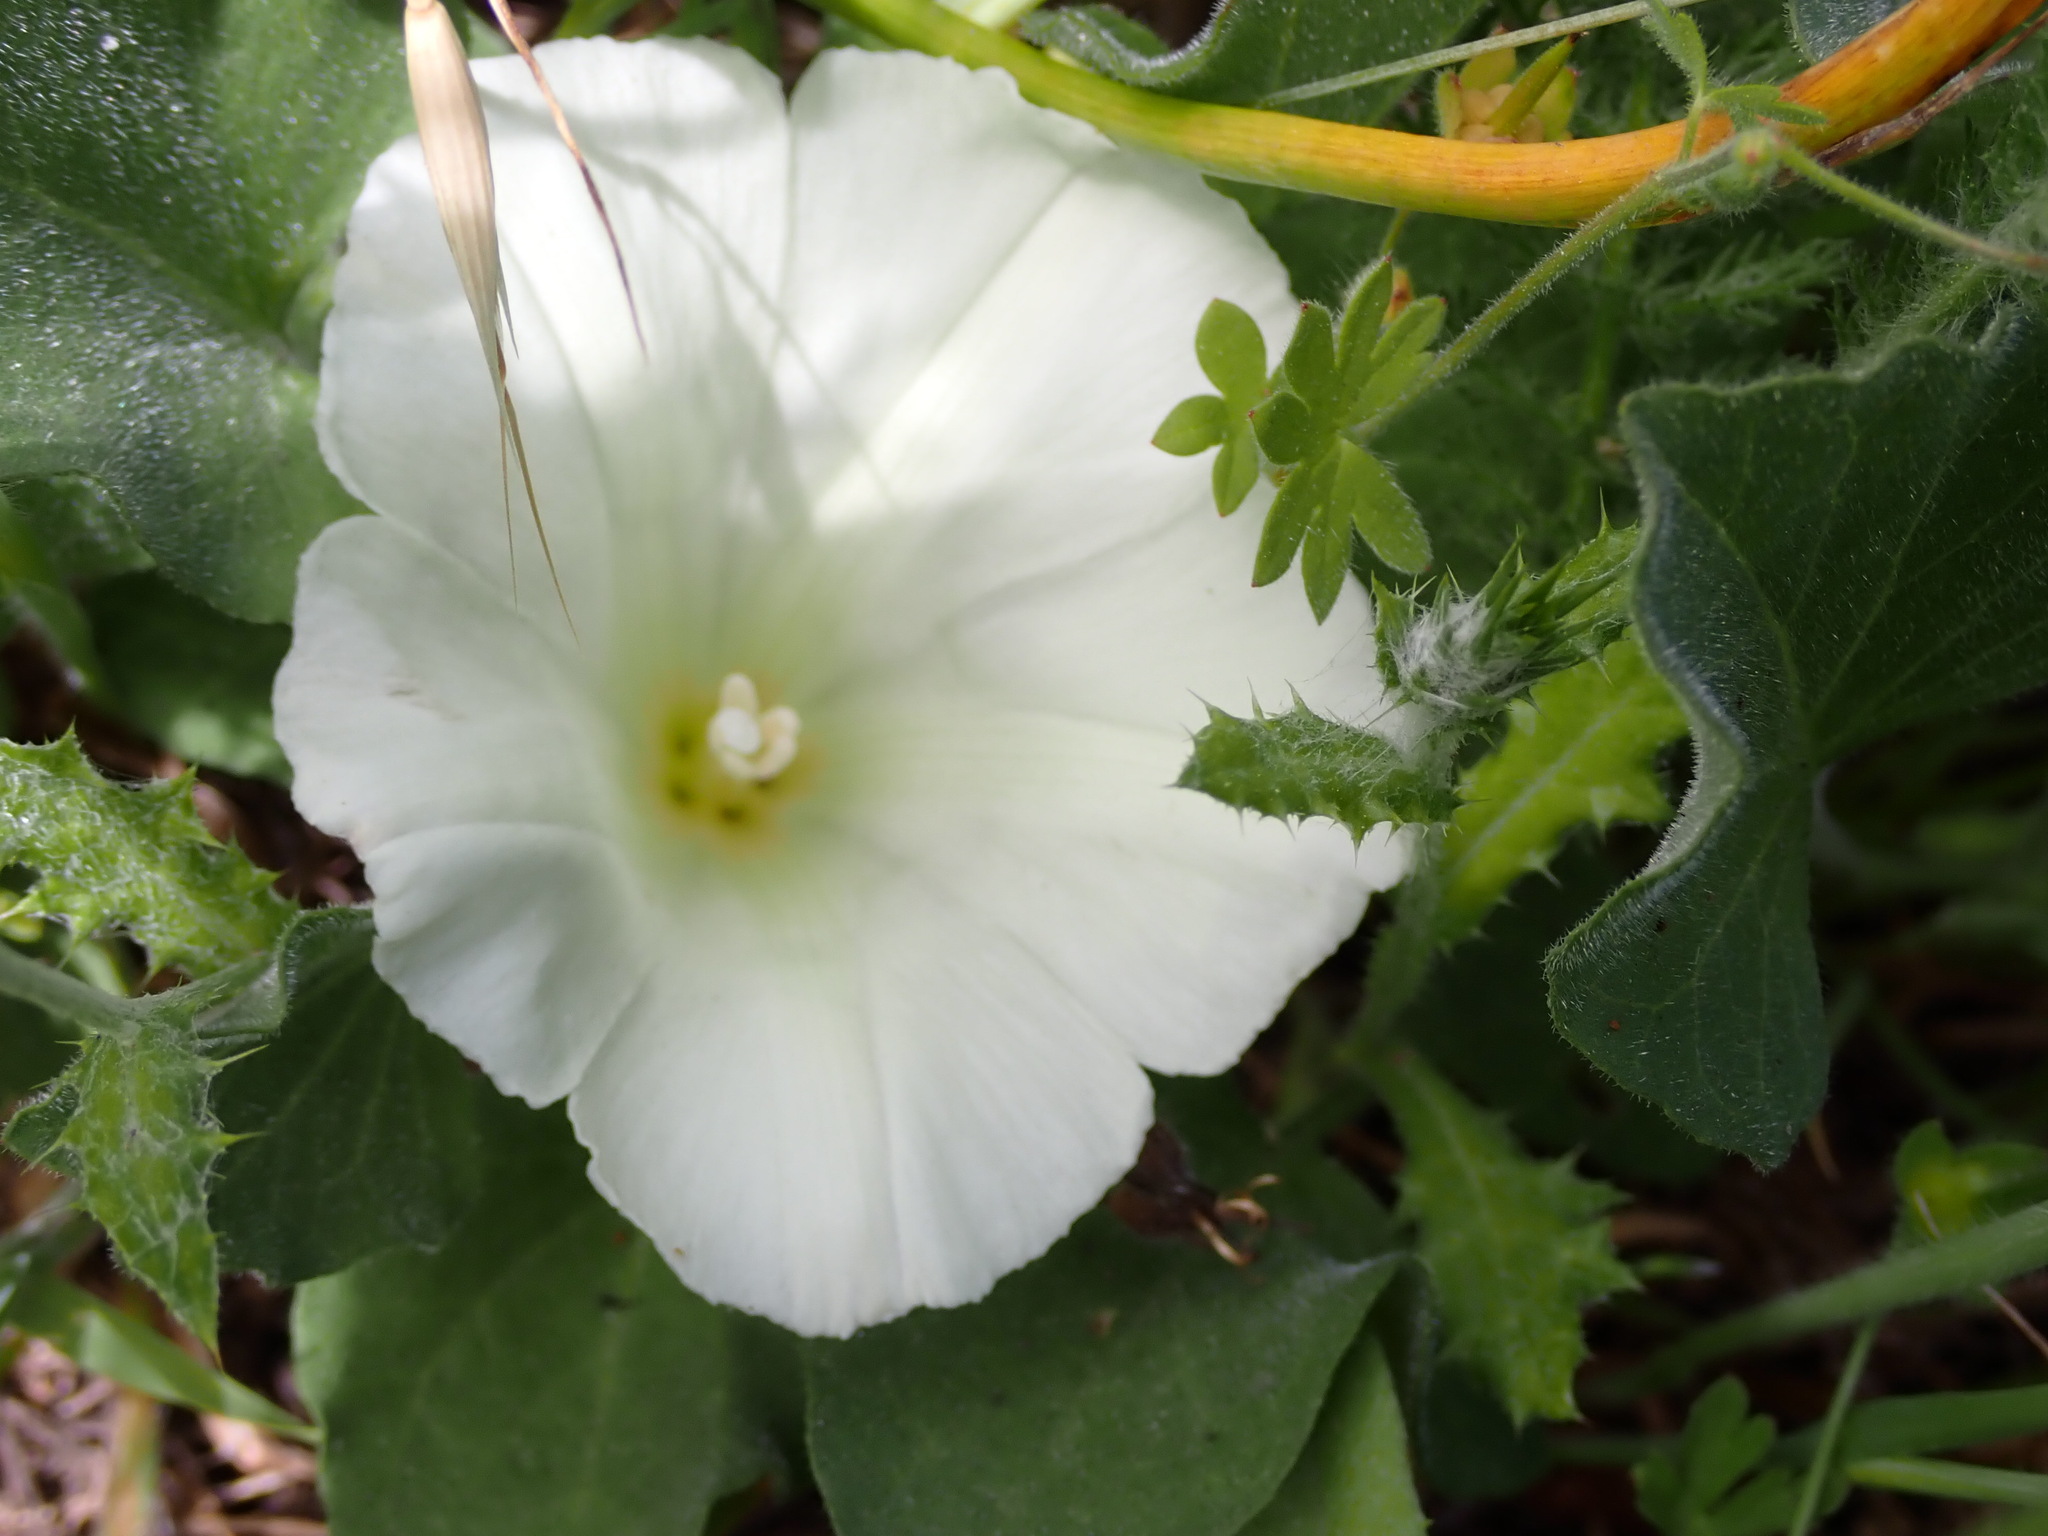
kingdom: Plantae
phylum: Tracheophyta
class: Magnoliopsida
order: Solanales
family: Convolvulaceae
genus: Calystegia
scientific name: Calystegia subacaulis
